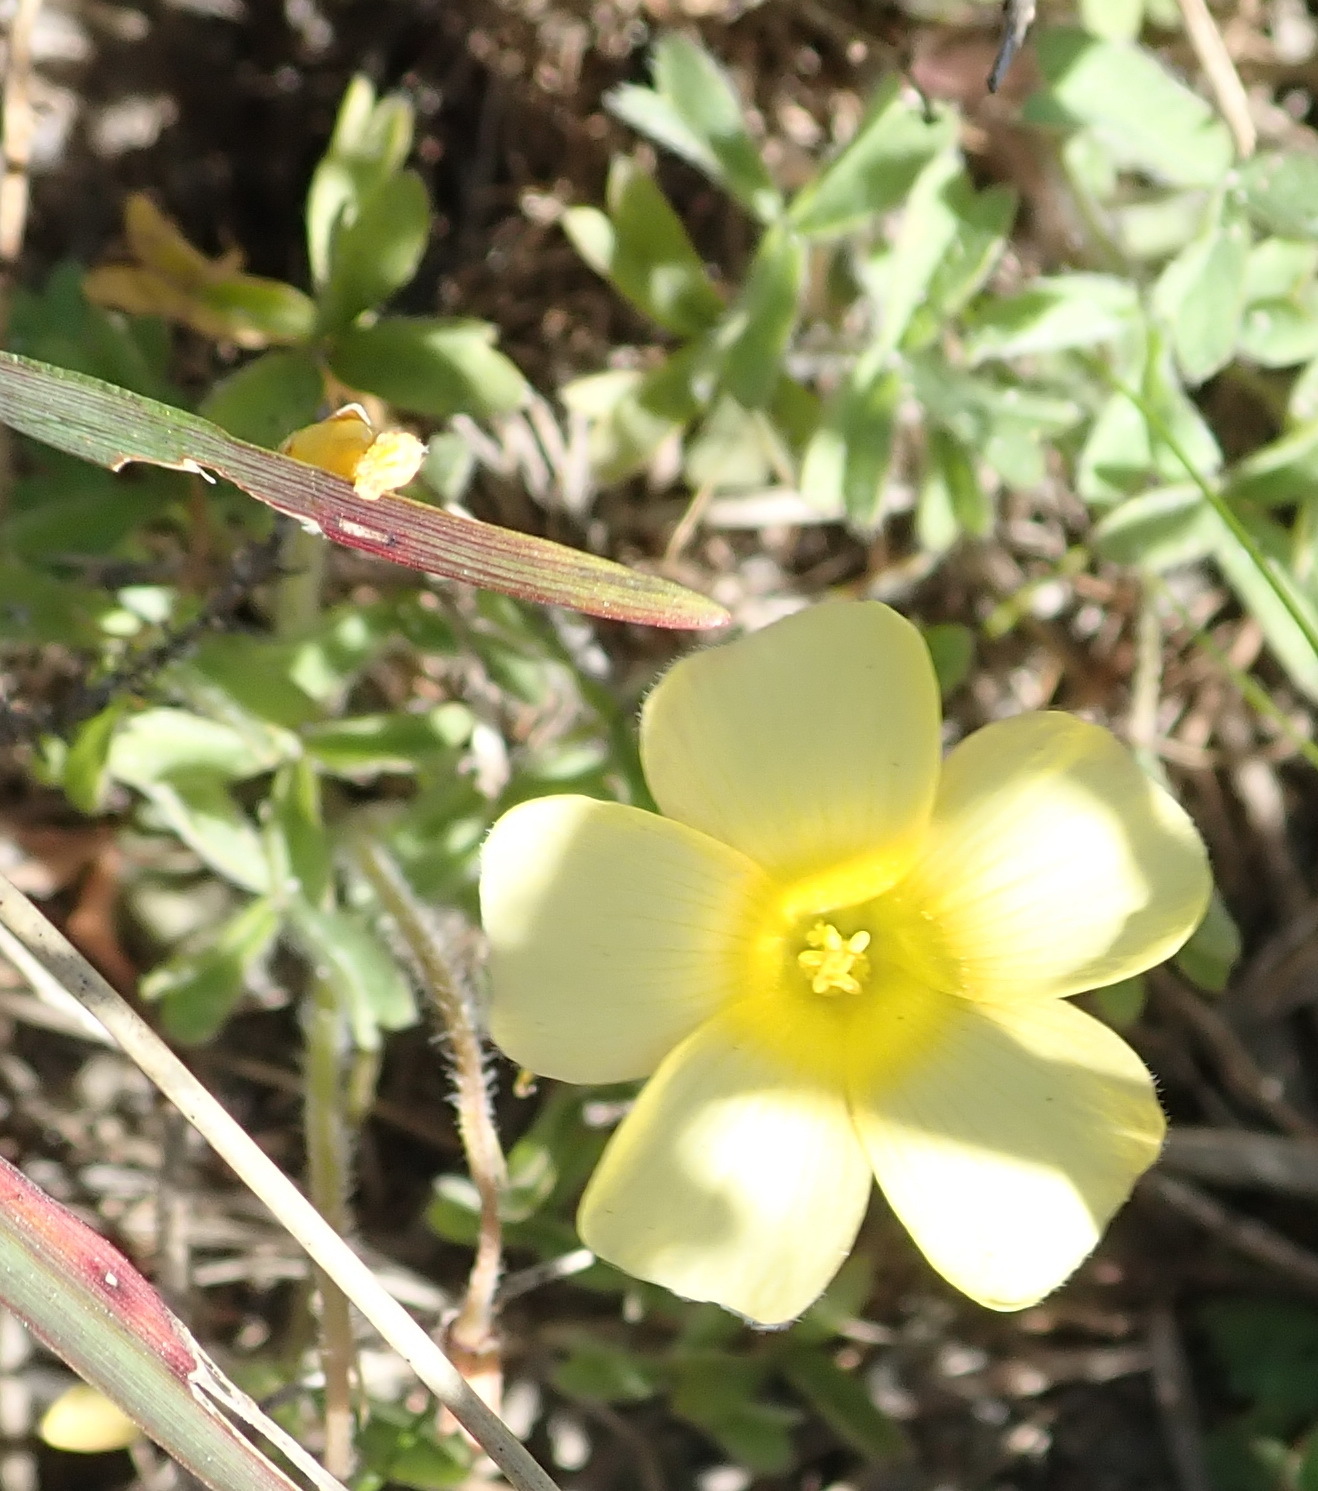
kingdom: Plantae
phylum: Tracheophyta
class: Magnoliopsida
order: Oxalidales
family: Oxalidaceae
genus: Oxalis
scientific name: Oxalis obtusa
